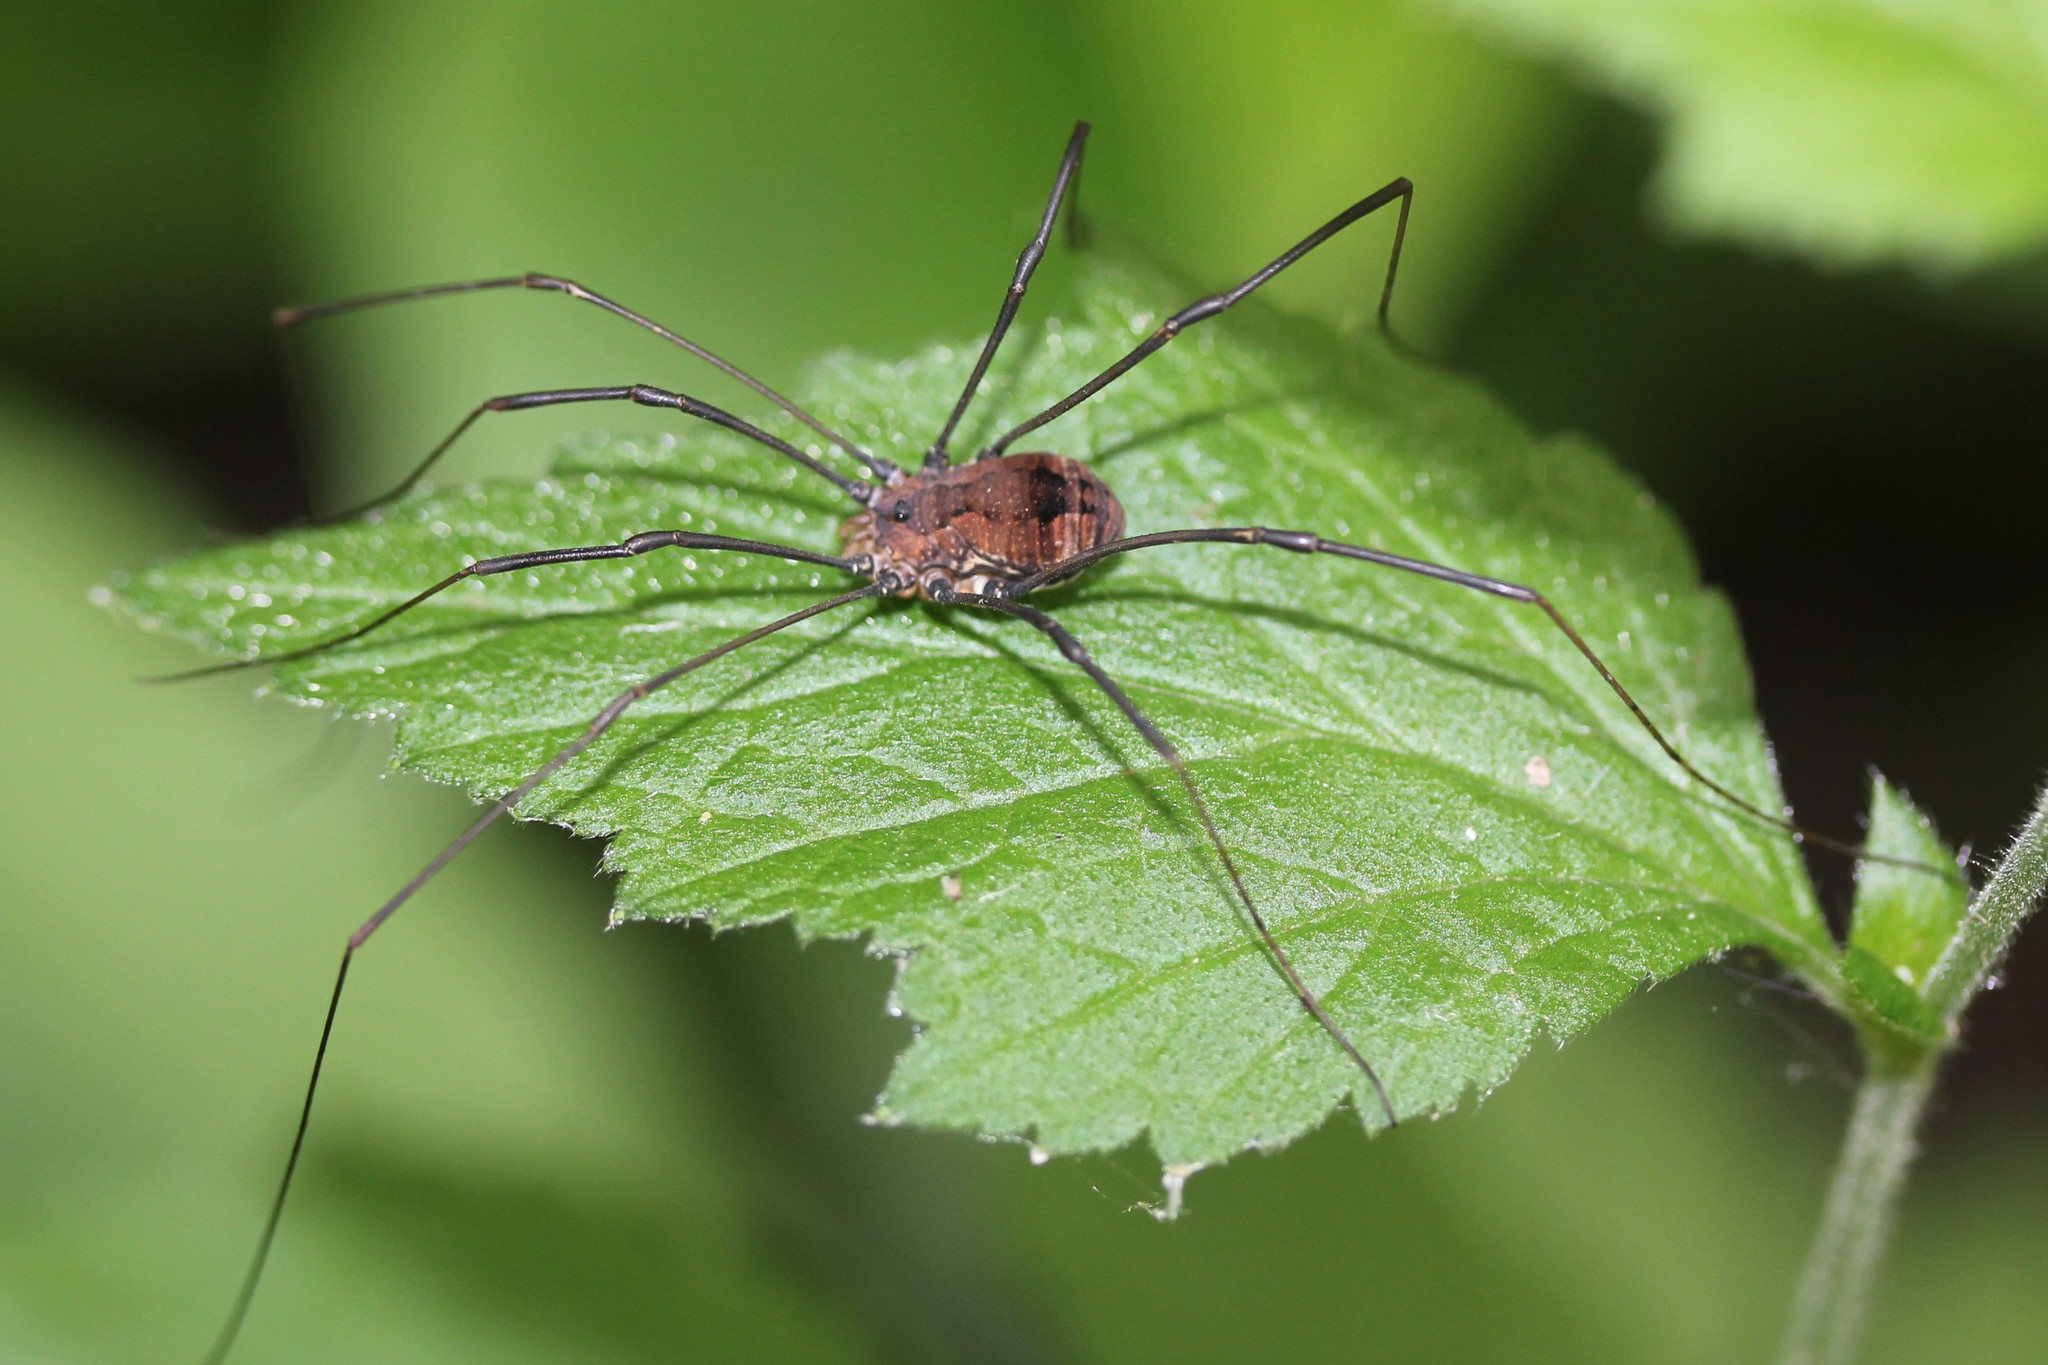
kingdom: Animalia
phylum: Arthropoda
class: Arachnida
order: Opiliones
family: Sclerosomatidae
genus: Leiobunum
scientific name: Leiobunum verrucosum
